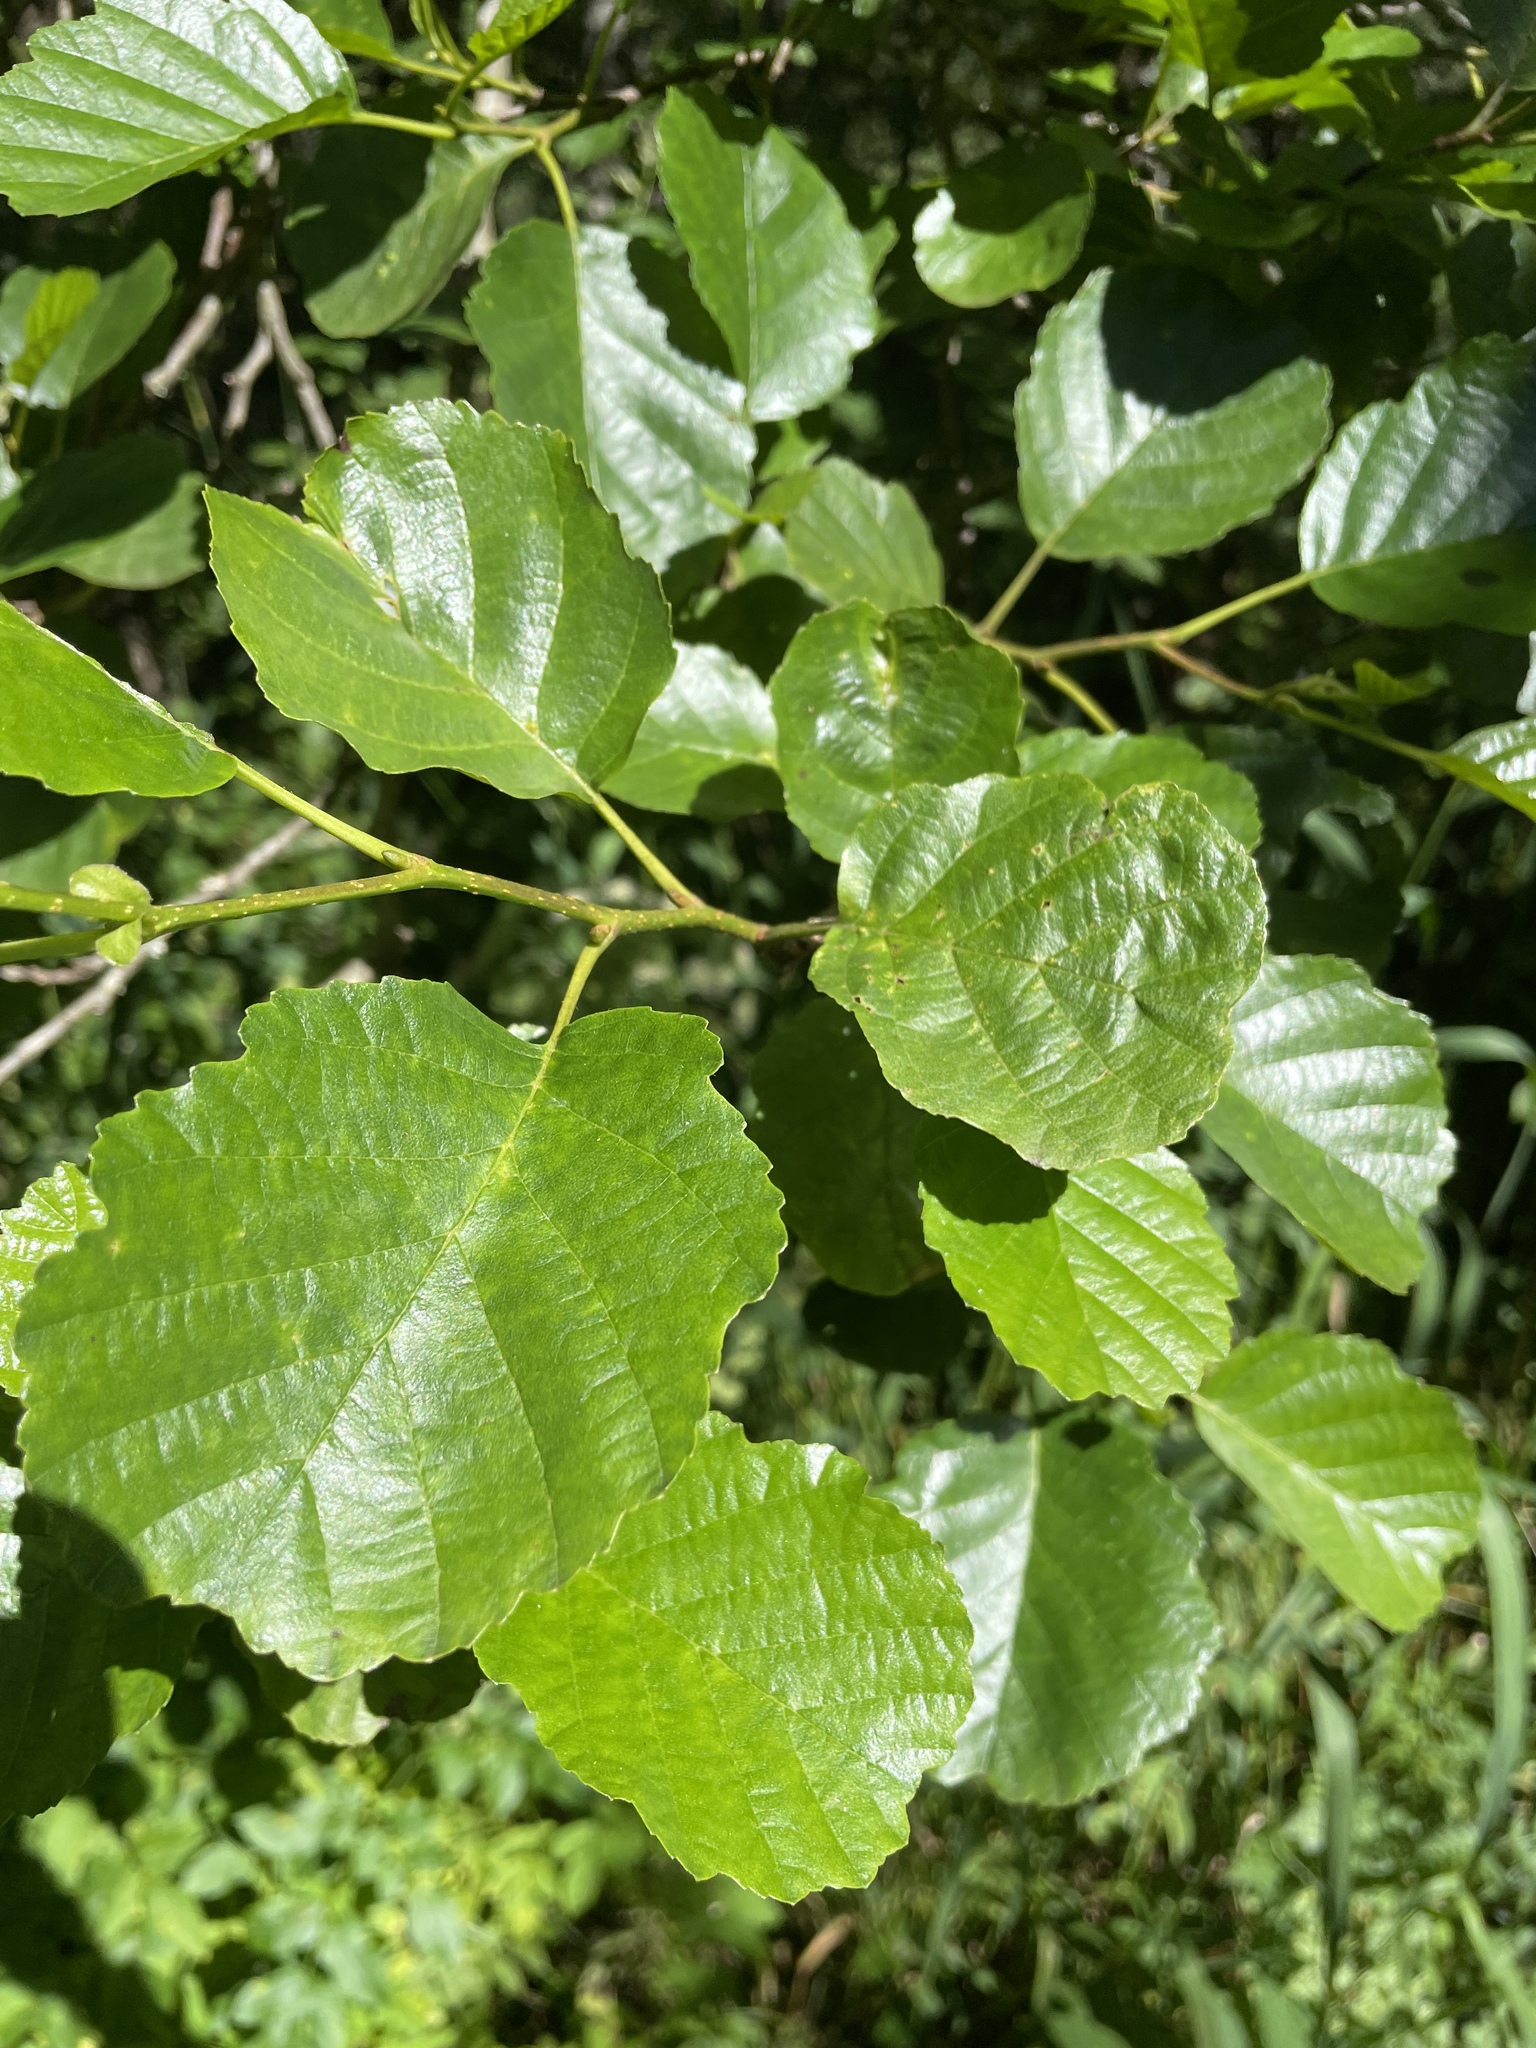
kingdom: Plantae
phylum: Tracheophyta
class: Magnoliopsida
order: Fagales
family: Betulaceae
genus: Alnus
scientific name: Alnus glutinosa
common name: Black alder
